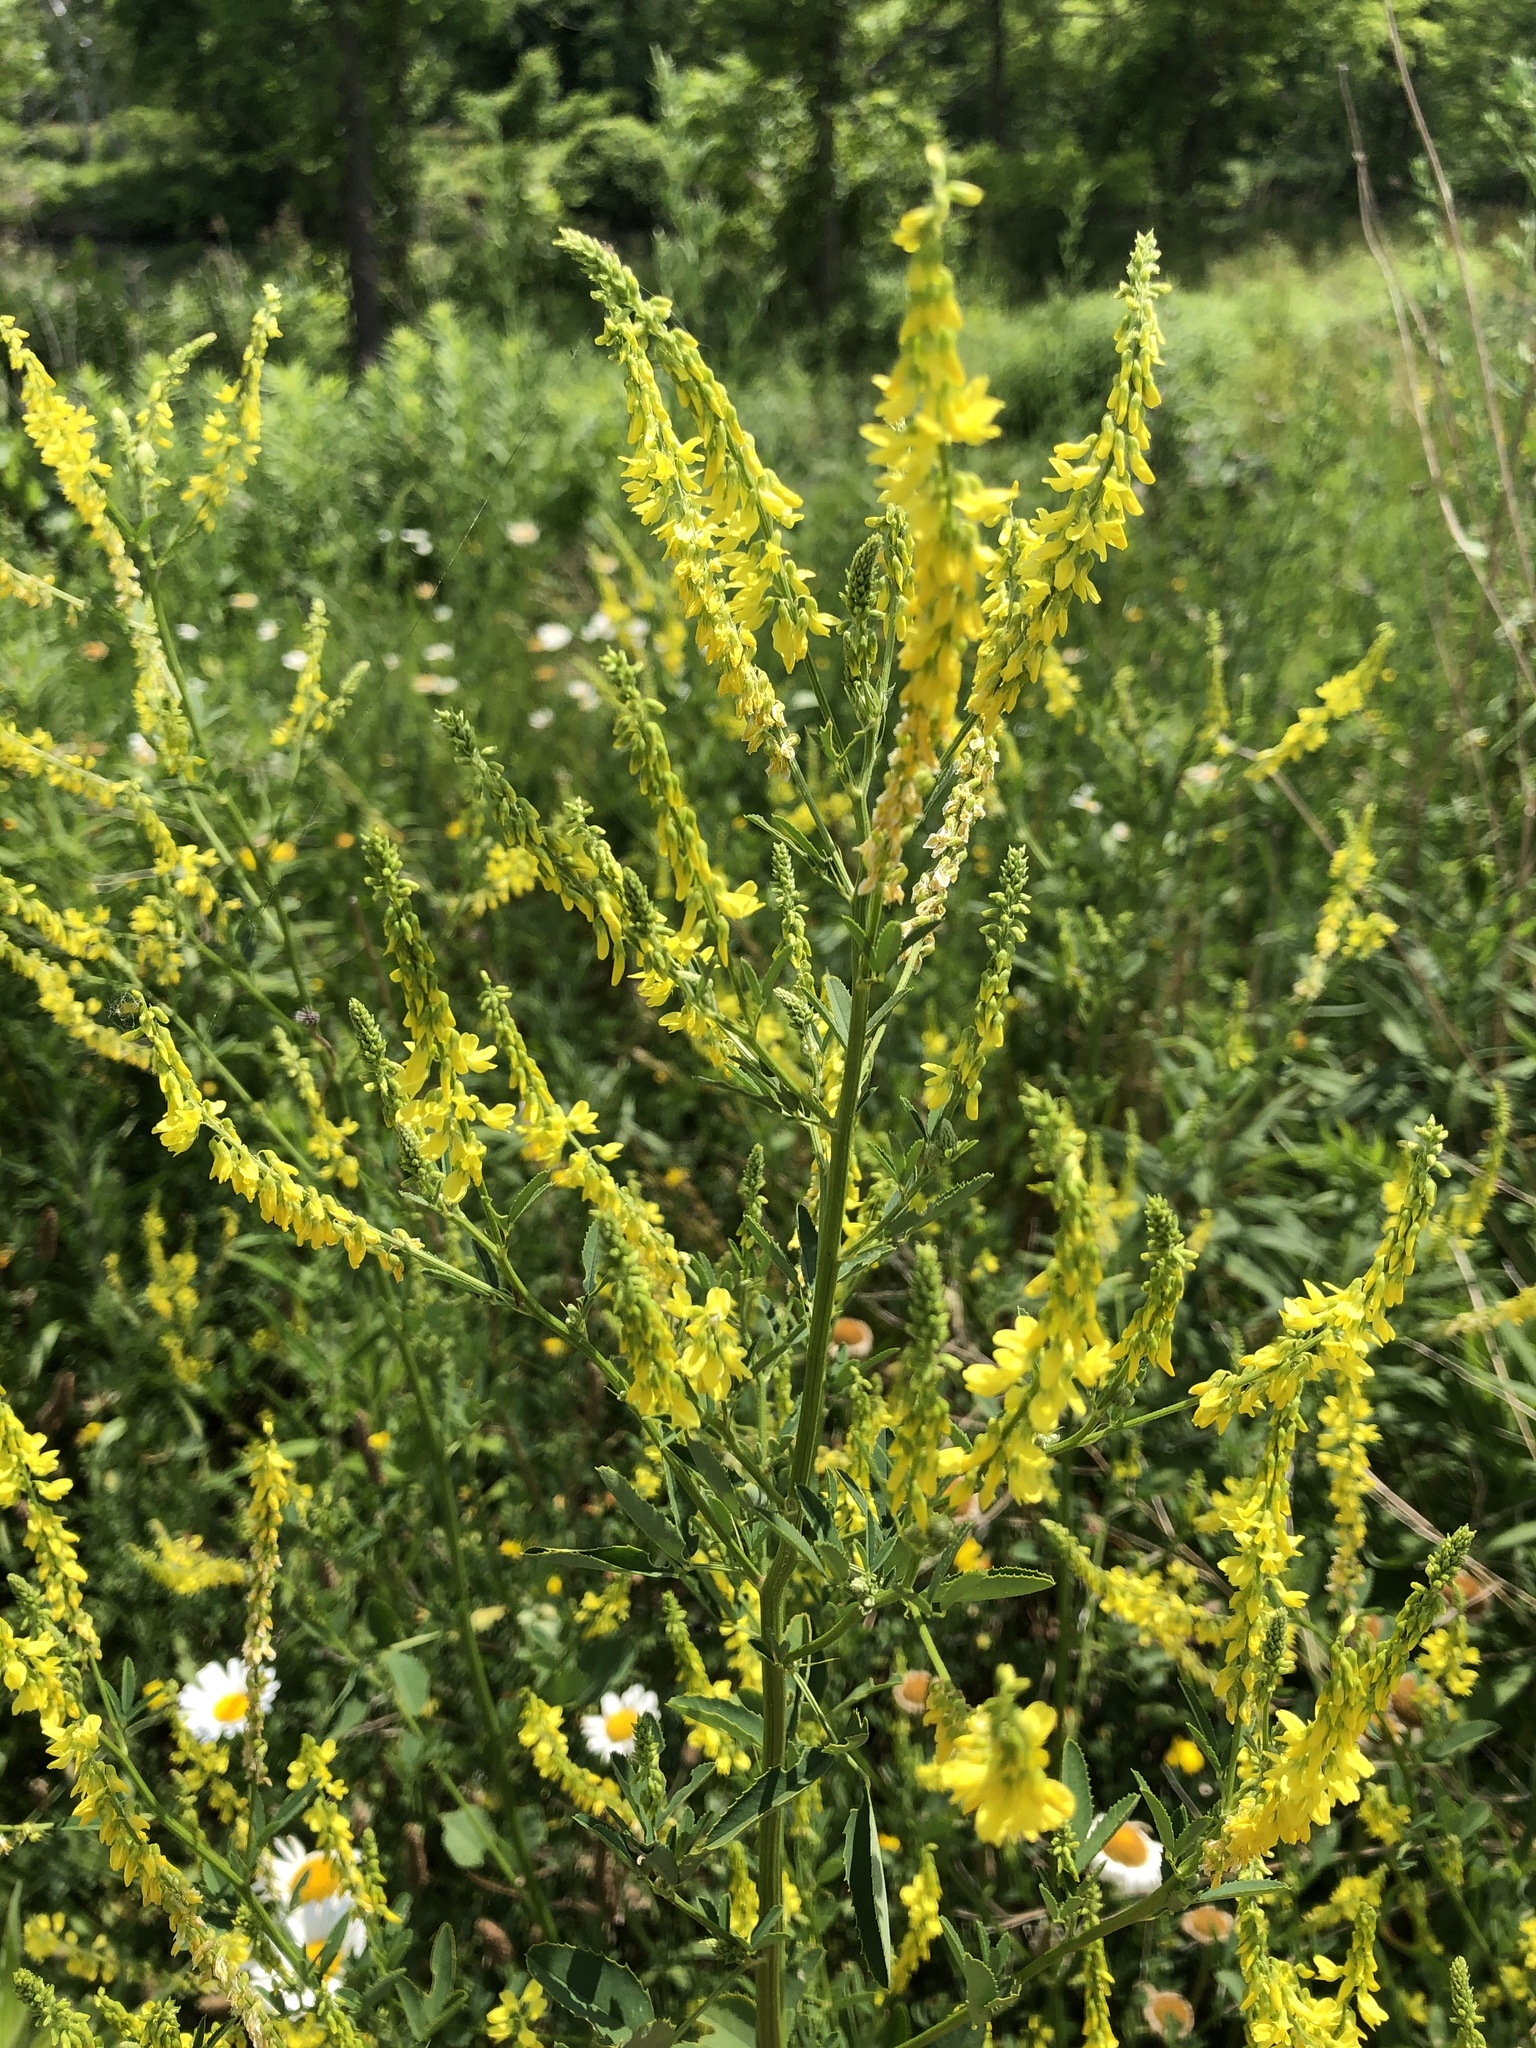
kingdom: Plantae
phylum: Tracheophyta
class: Magnoliopsida
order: Fabales
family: Fabaceae
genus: Melilotus
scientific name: Melilotus officinalis
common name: Sweetclover
